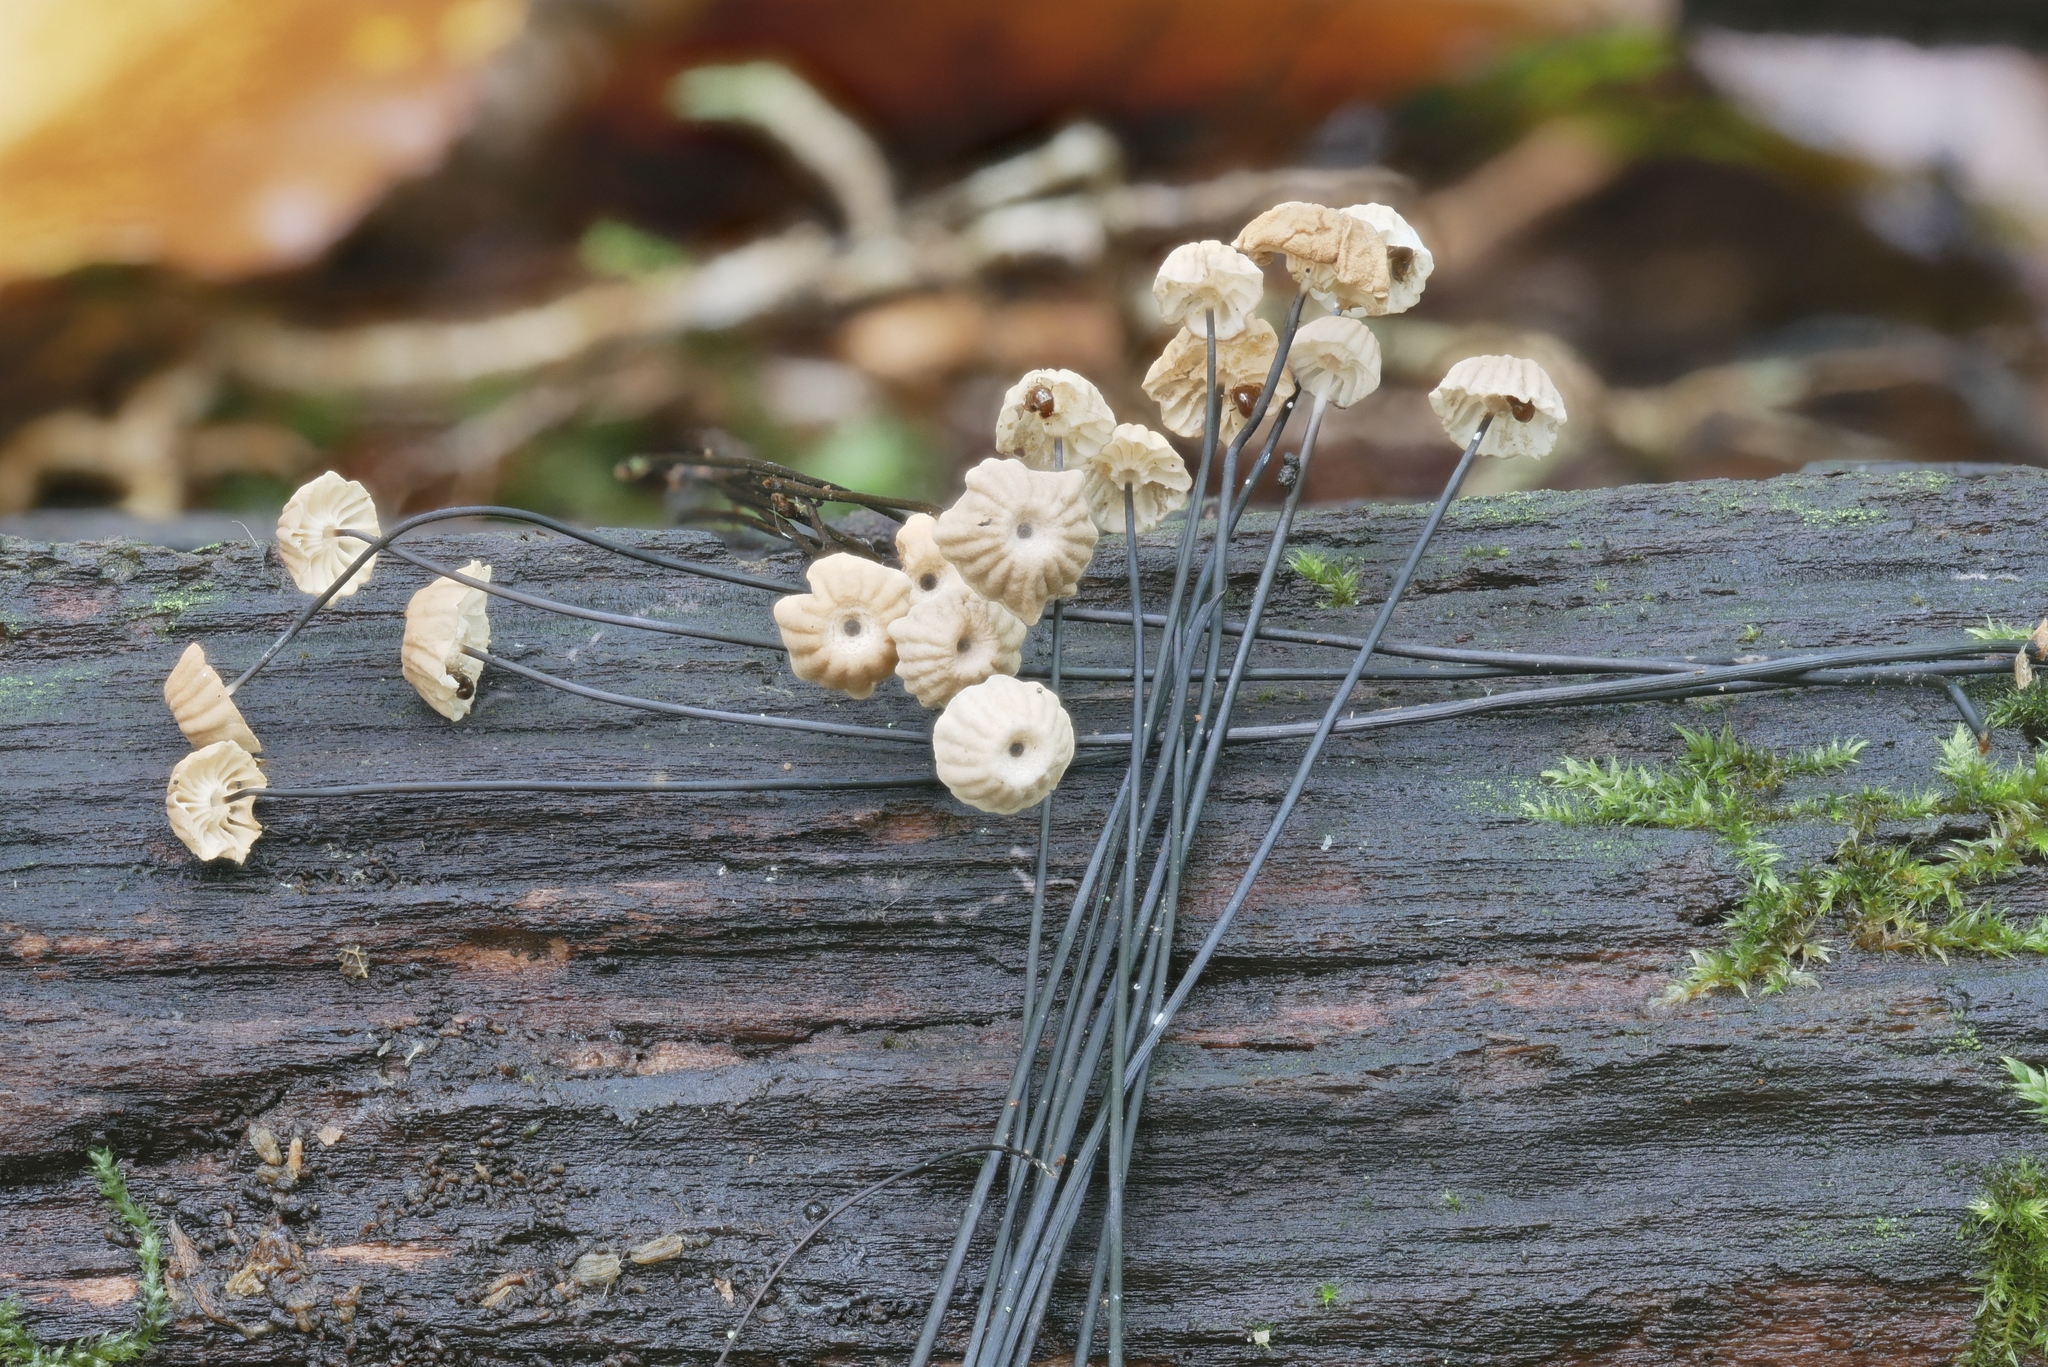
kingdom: Fungi
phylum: Basidiomycota
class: Agaricomycetes
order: Agaricales
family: Marasmiaceae
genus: Marasmius
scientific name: Marasmius bulliardii
